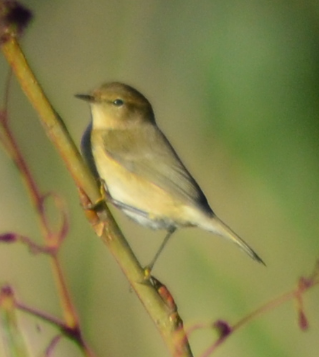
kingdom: Animalia
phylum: Chordata
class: Aves
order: Passeriformes
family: Phylloscopidae
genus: Phylloscopus
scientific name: Phylloscopus collybita
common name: Common chiffchaff
